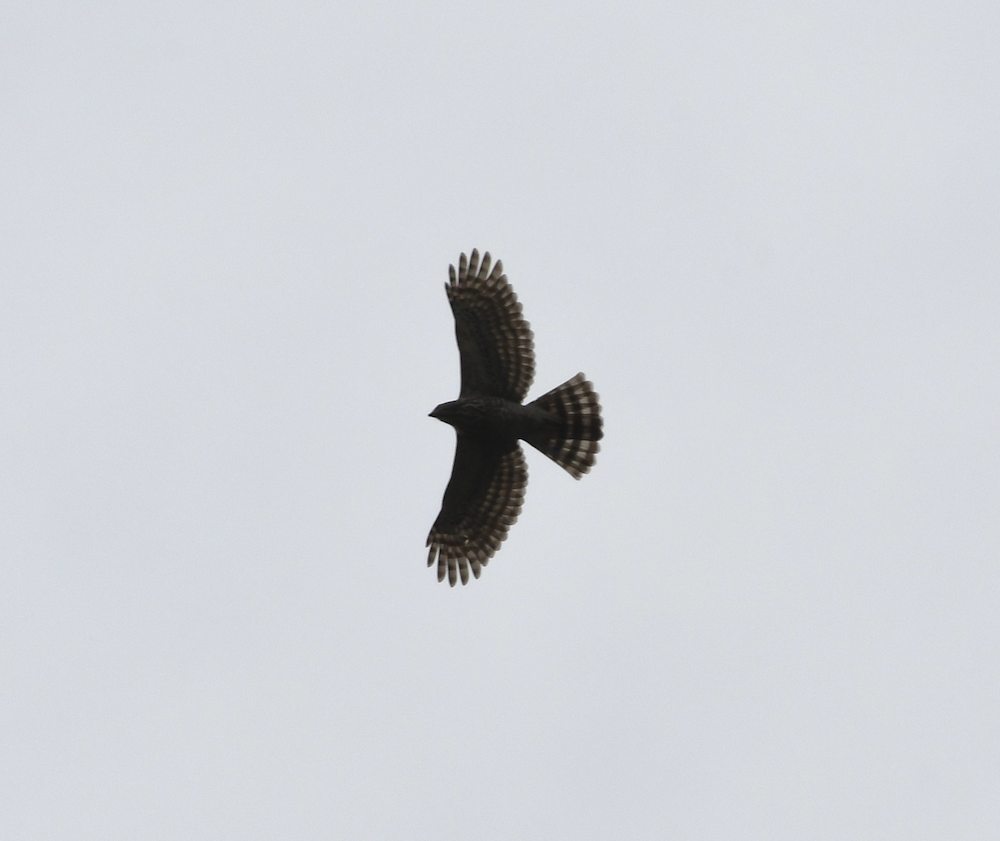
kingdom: Animalia
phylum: Chordata
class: Aves
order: Accipitriformes
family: Accipitridae
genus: Accipiter
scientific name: Accipiter trivirgatus
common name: Crested goshawk
